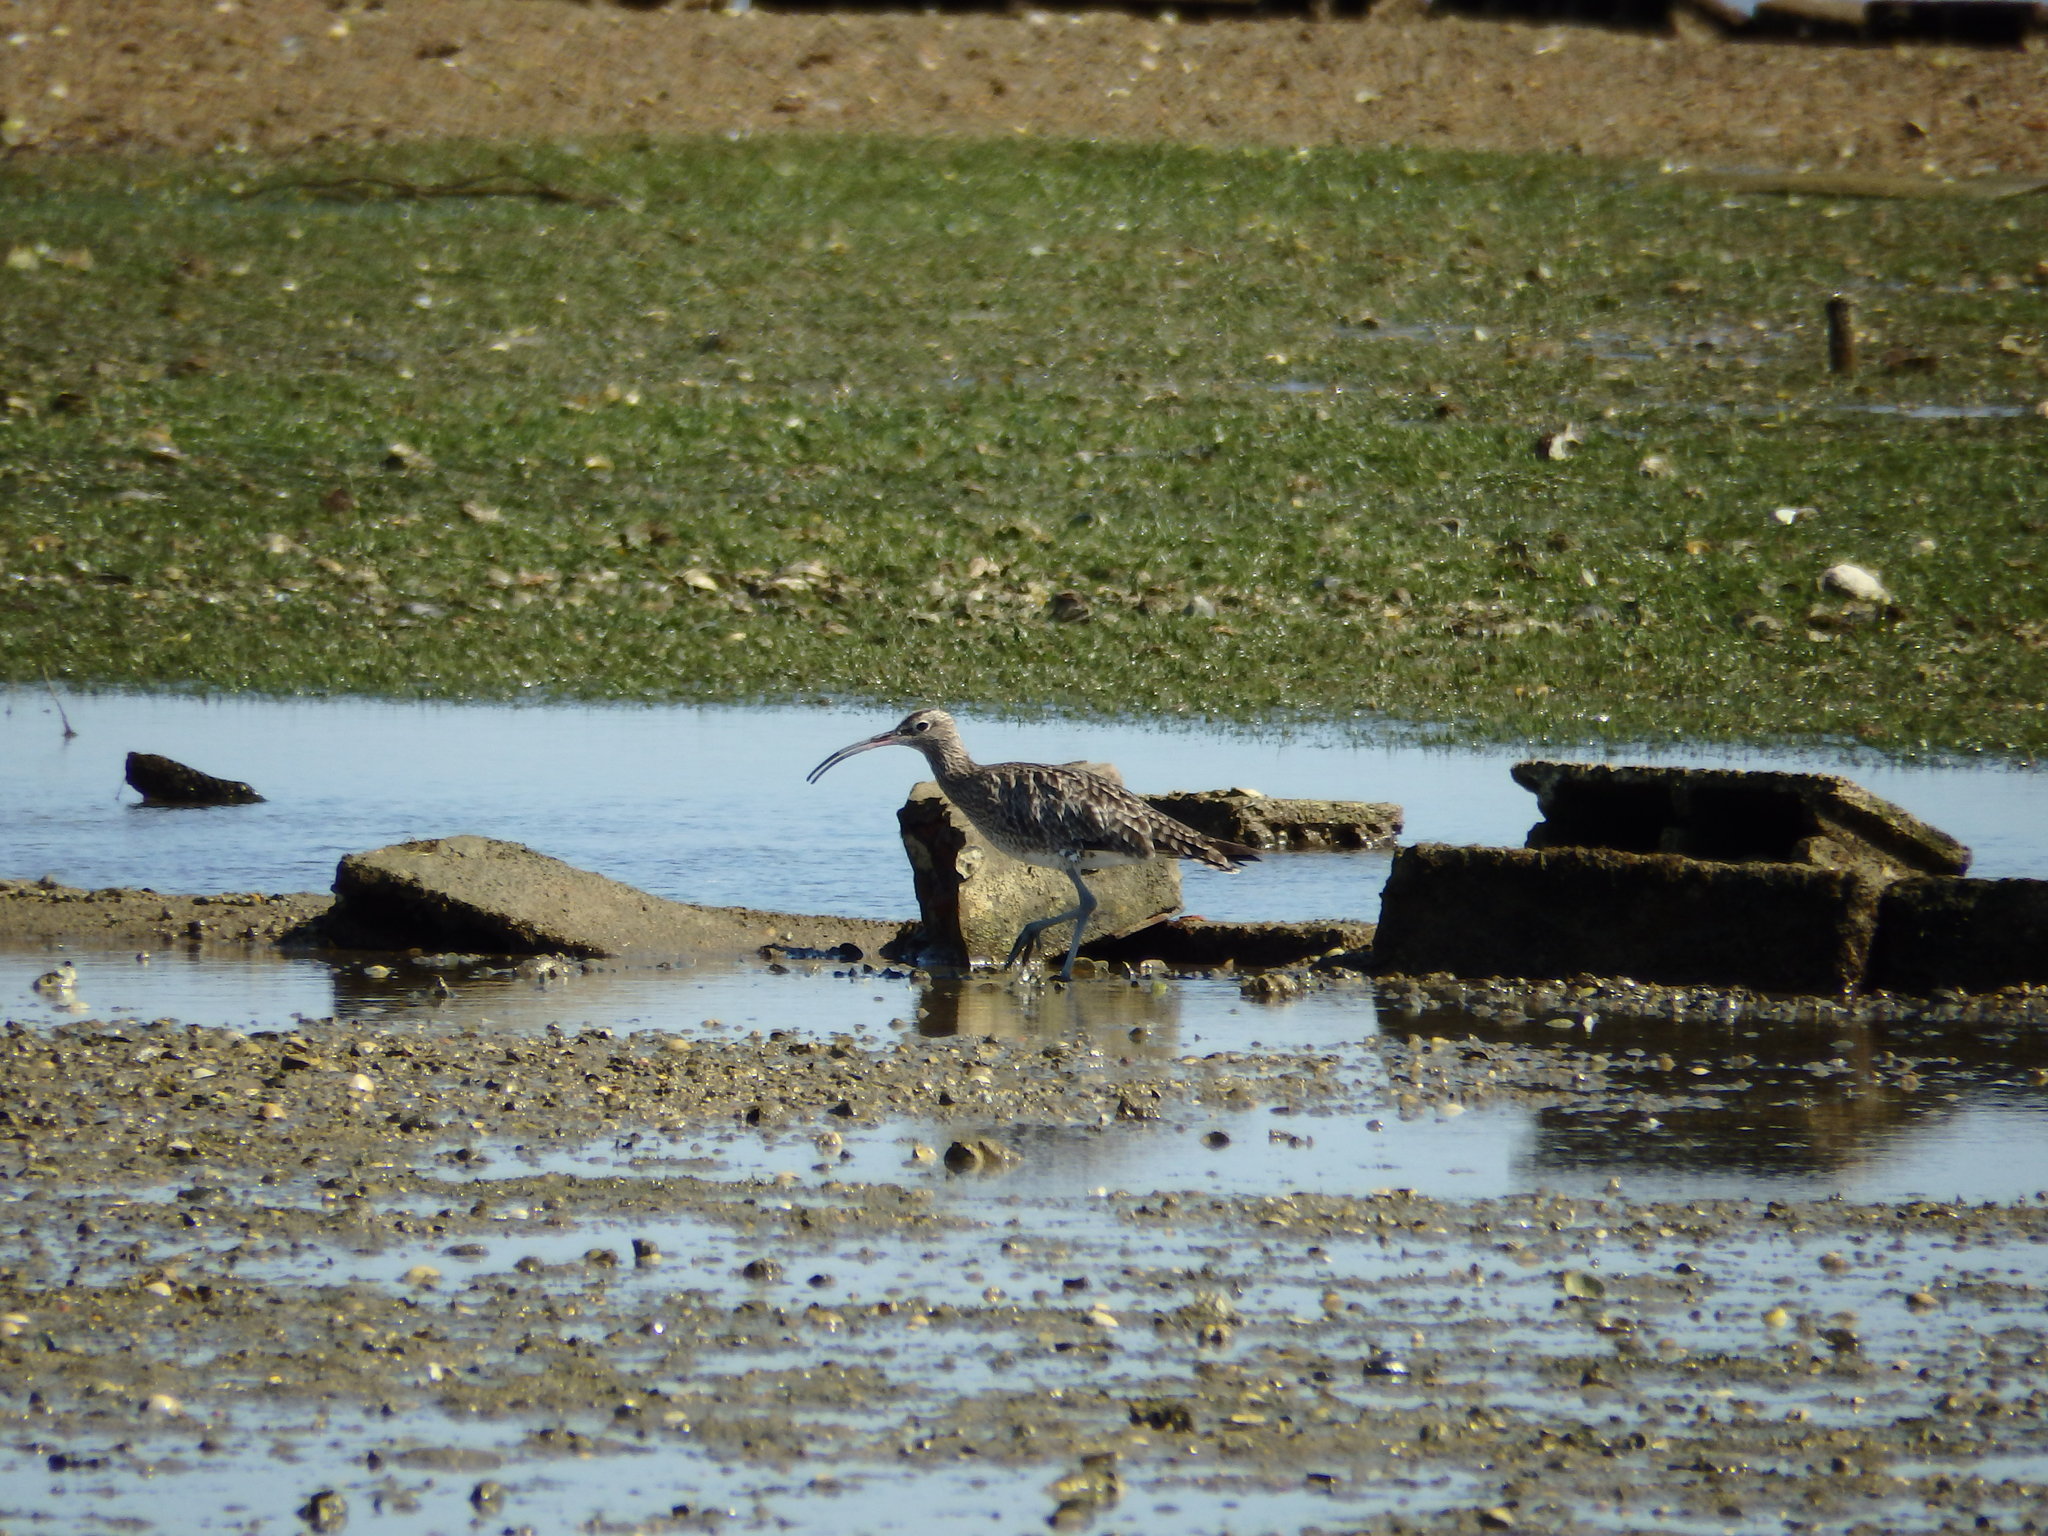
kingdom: Animalia
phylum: Chordata
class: Aves
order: Charadriiformes
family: Scolopacidae
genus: Numenius
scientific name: Numenius phaeopus
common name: Whimbrel
